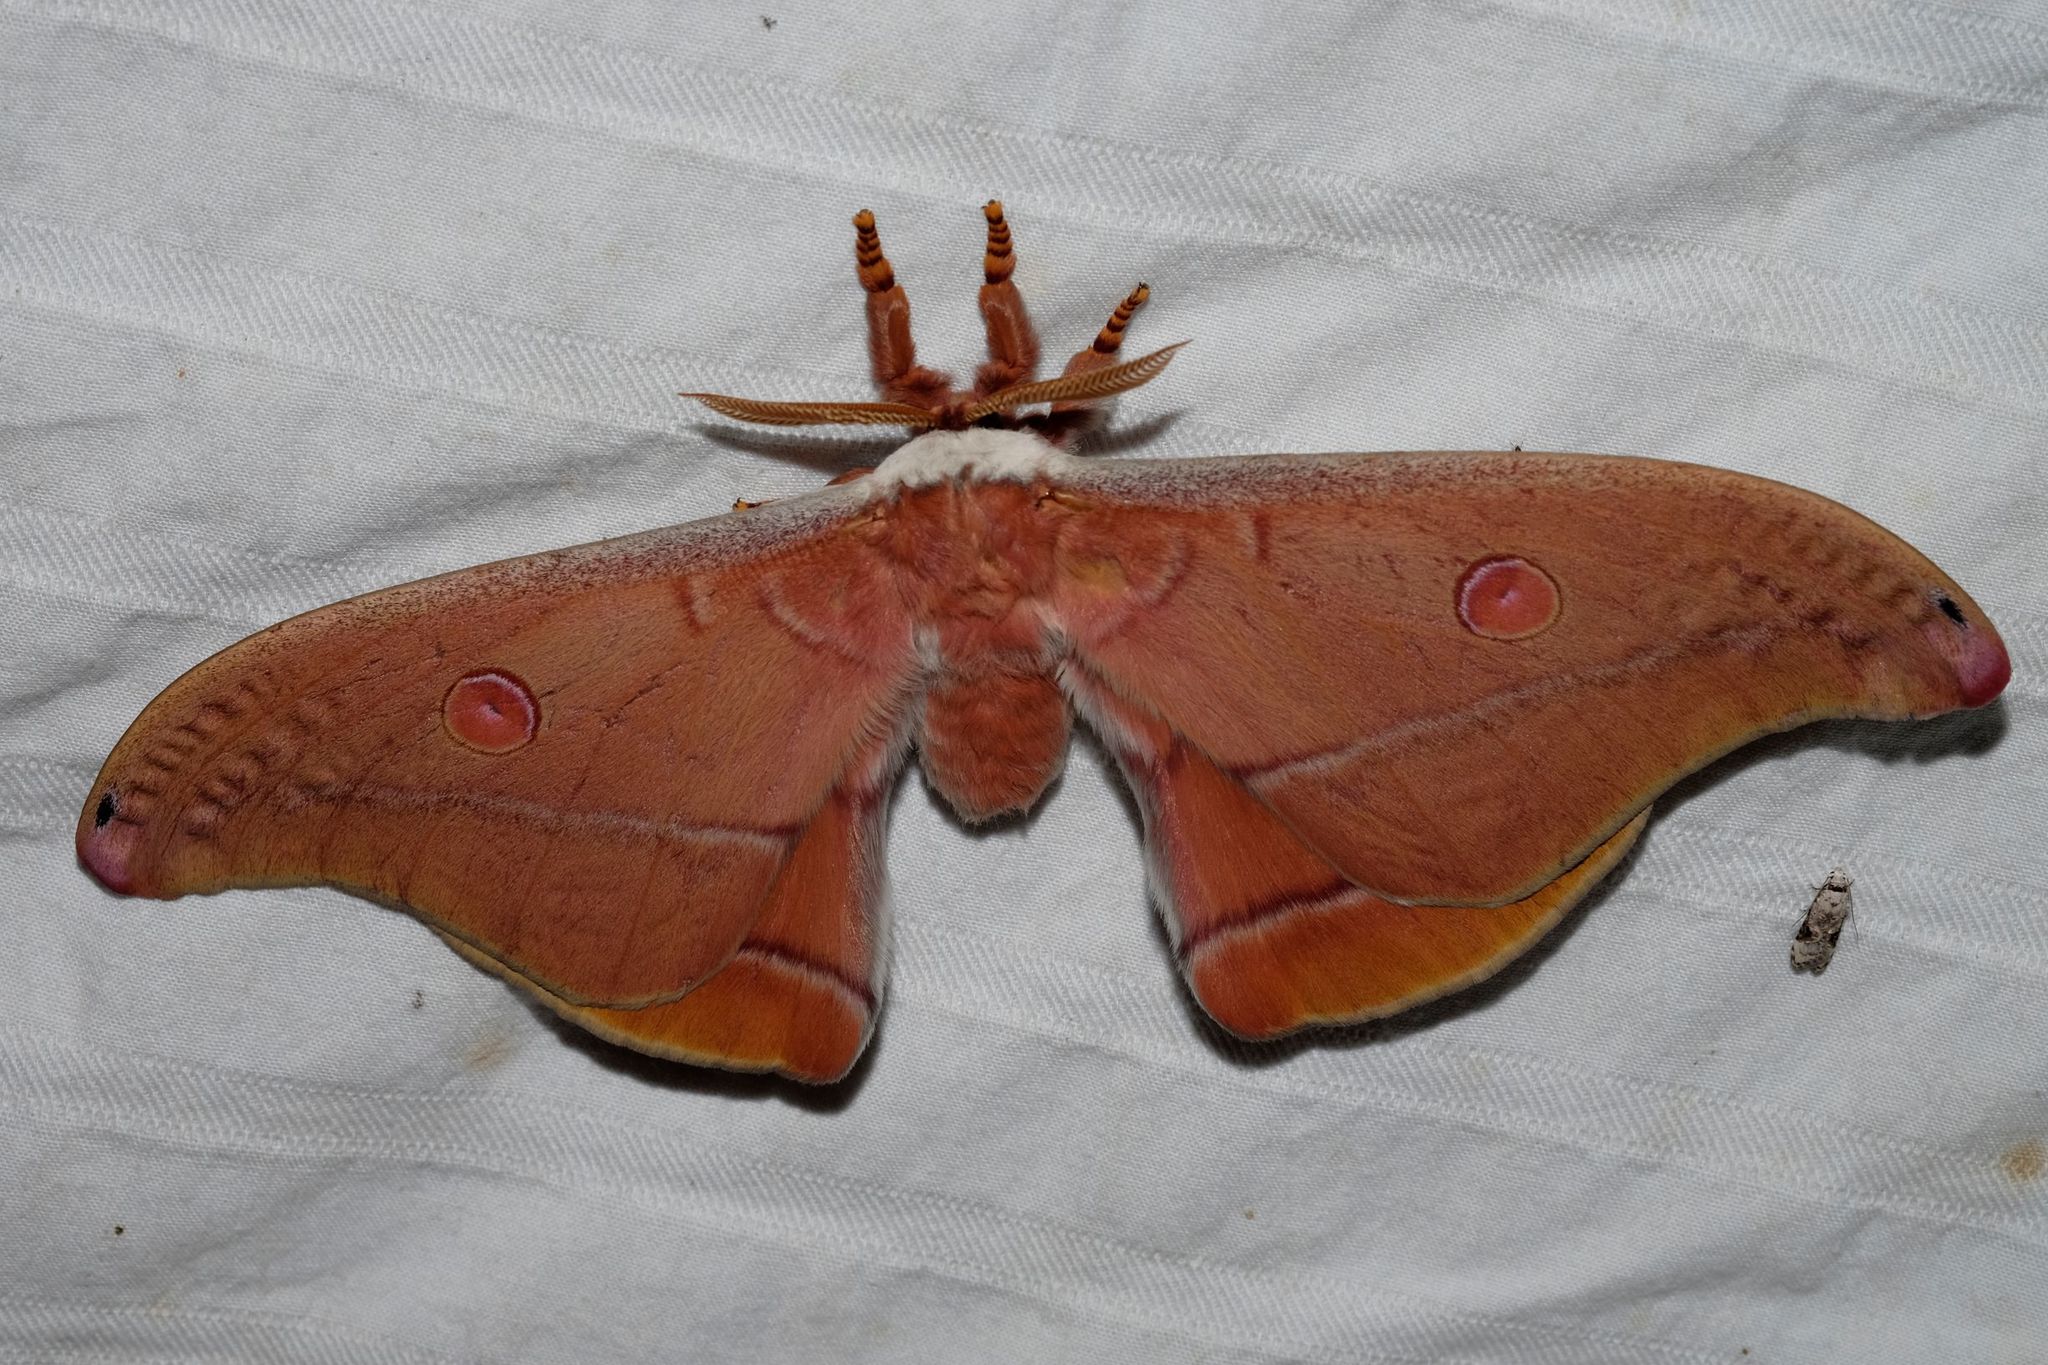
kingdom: Animalia
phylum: Arthropoda
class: Insecta
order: Lepidoptera
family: Saturniidae
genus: Opodiphthera
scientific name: Opodiphthera
